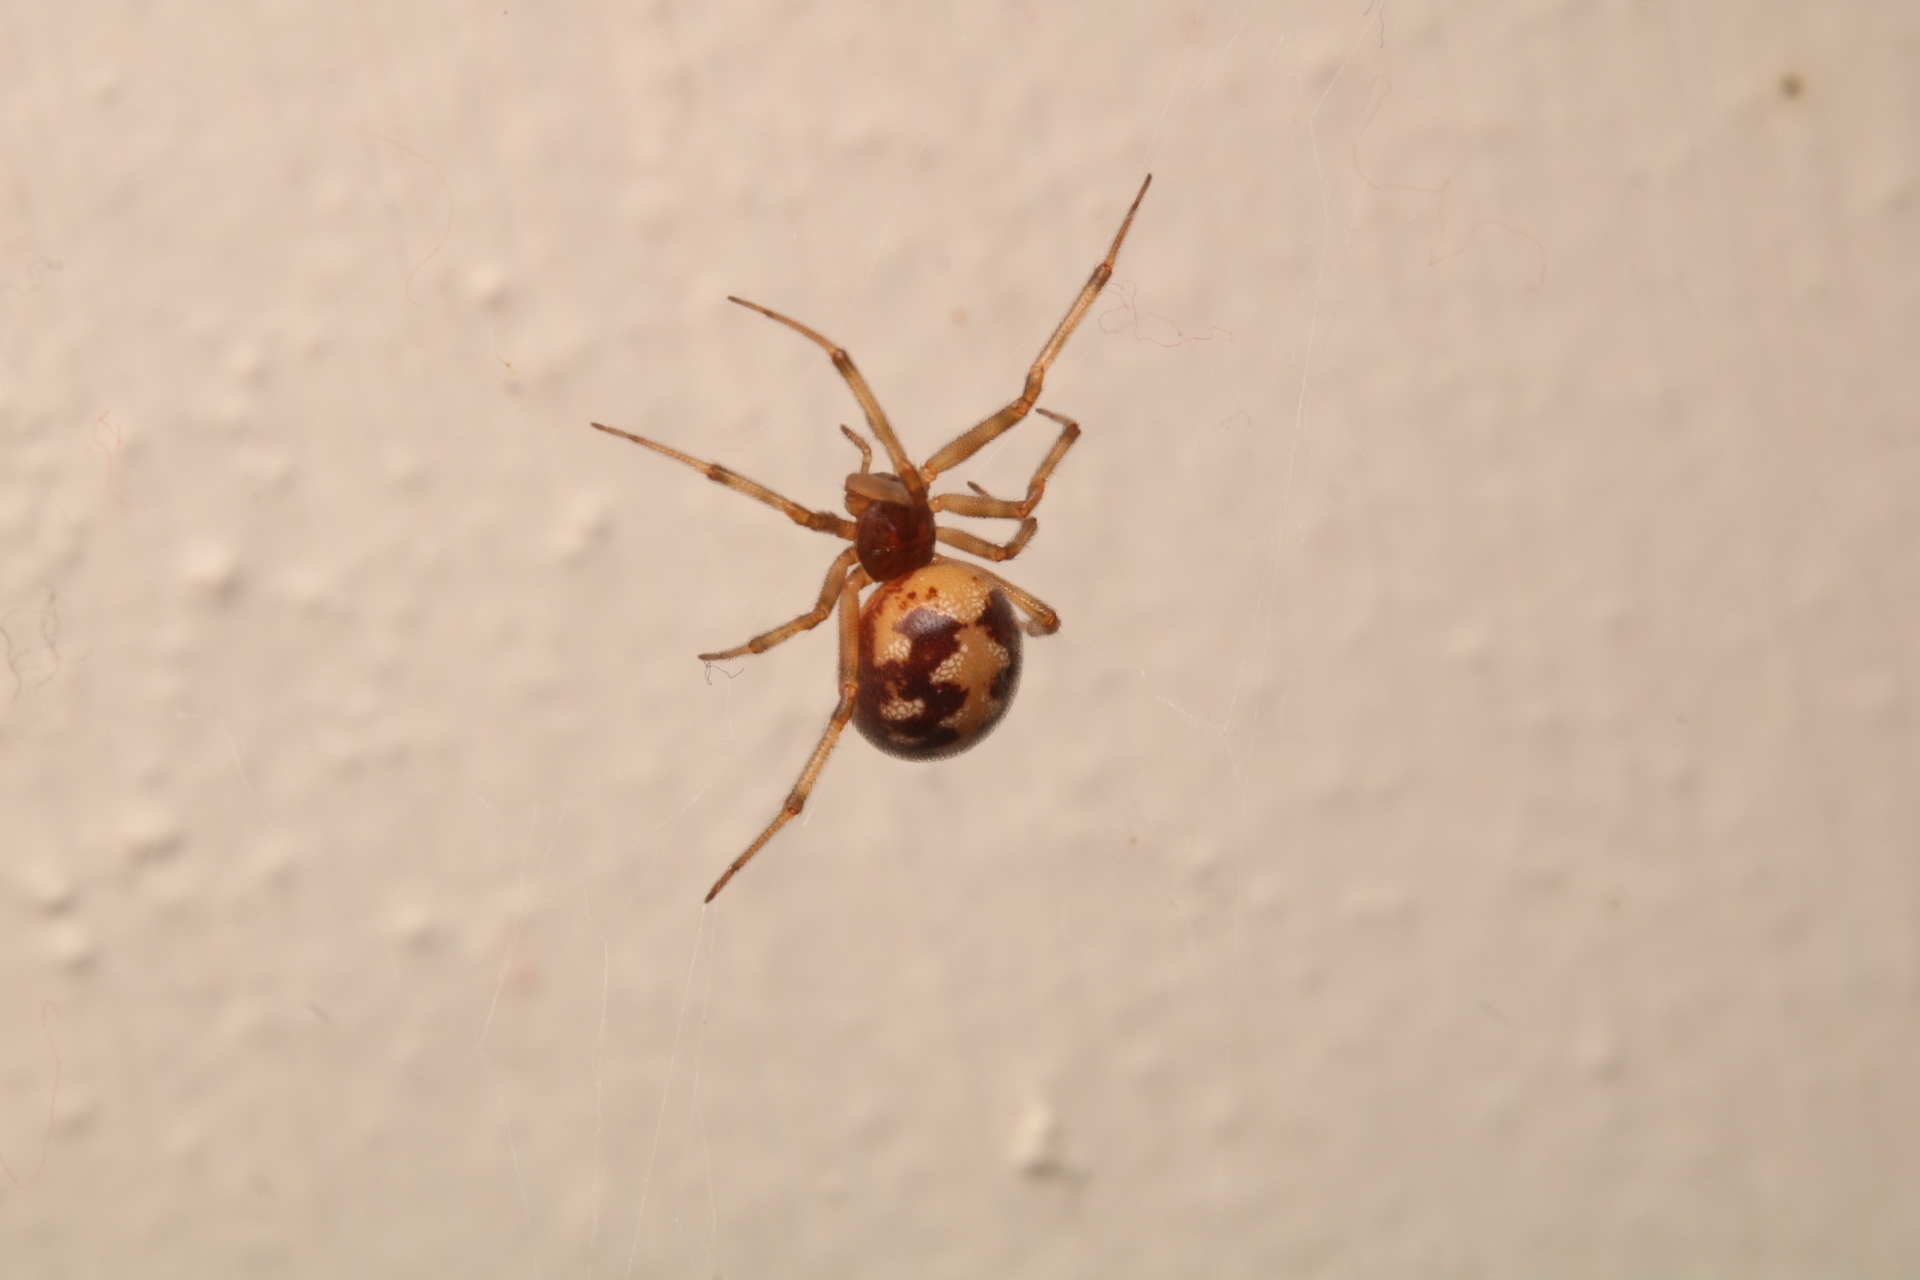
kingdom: Animalia
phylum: Arthropoda
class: Arachnida
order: Araneae
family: Theridiidae
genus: Steatoda
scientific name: Steatoda triangulosa
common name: Triangulate bud spider
